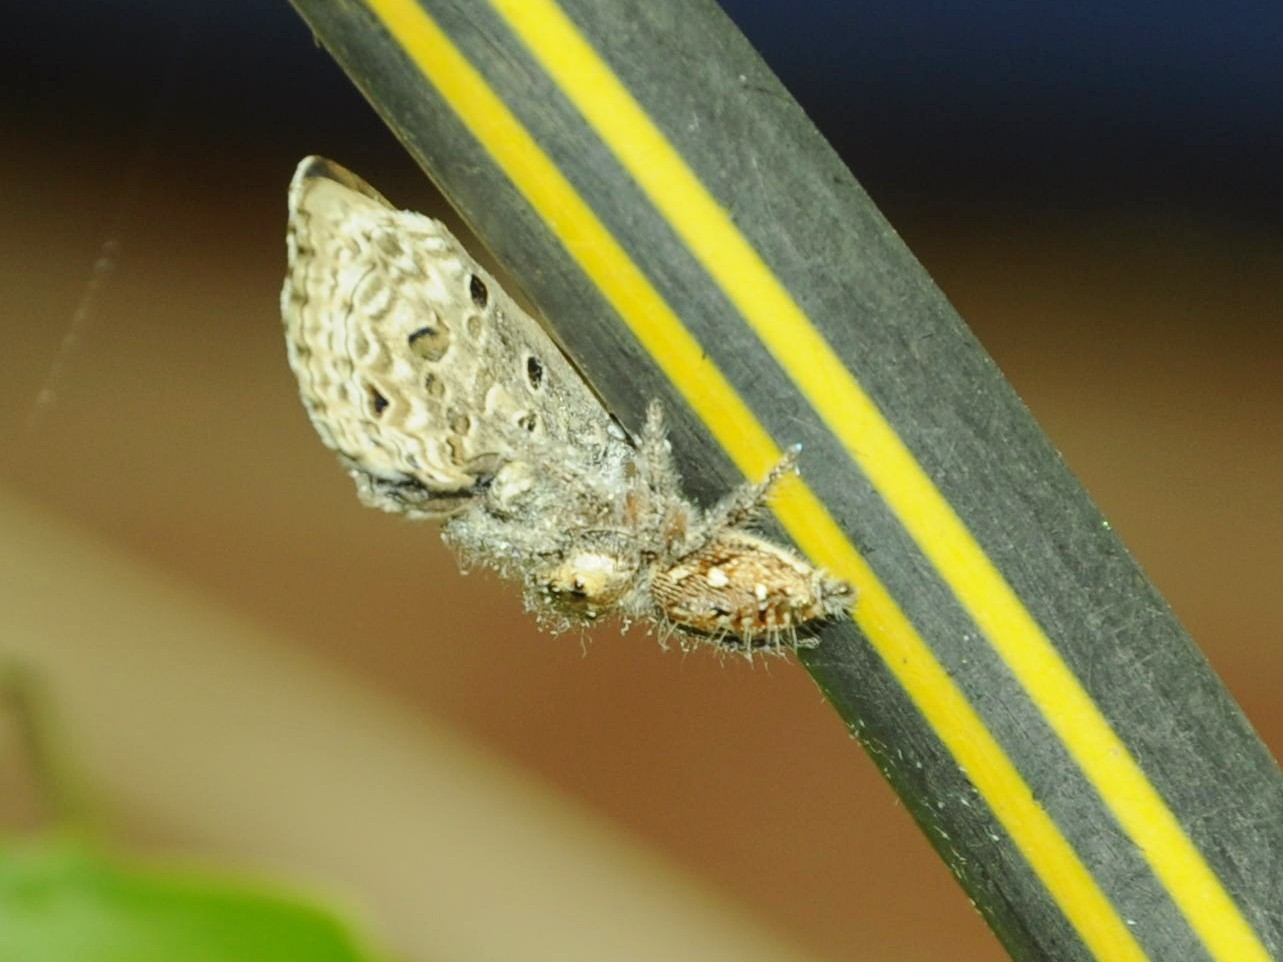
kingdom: Animalia
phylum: Arthropoda
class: Arachnida
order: Araneae
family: Salticidae
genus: Hyllus
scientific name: Hyllus semicupreus
